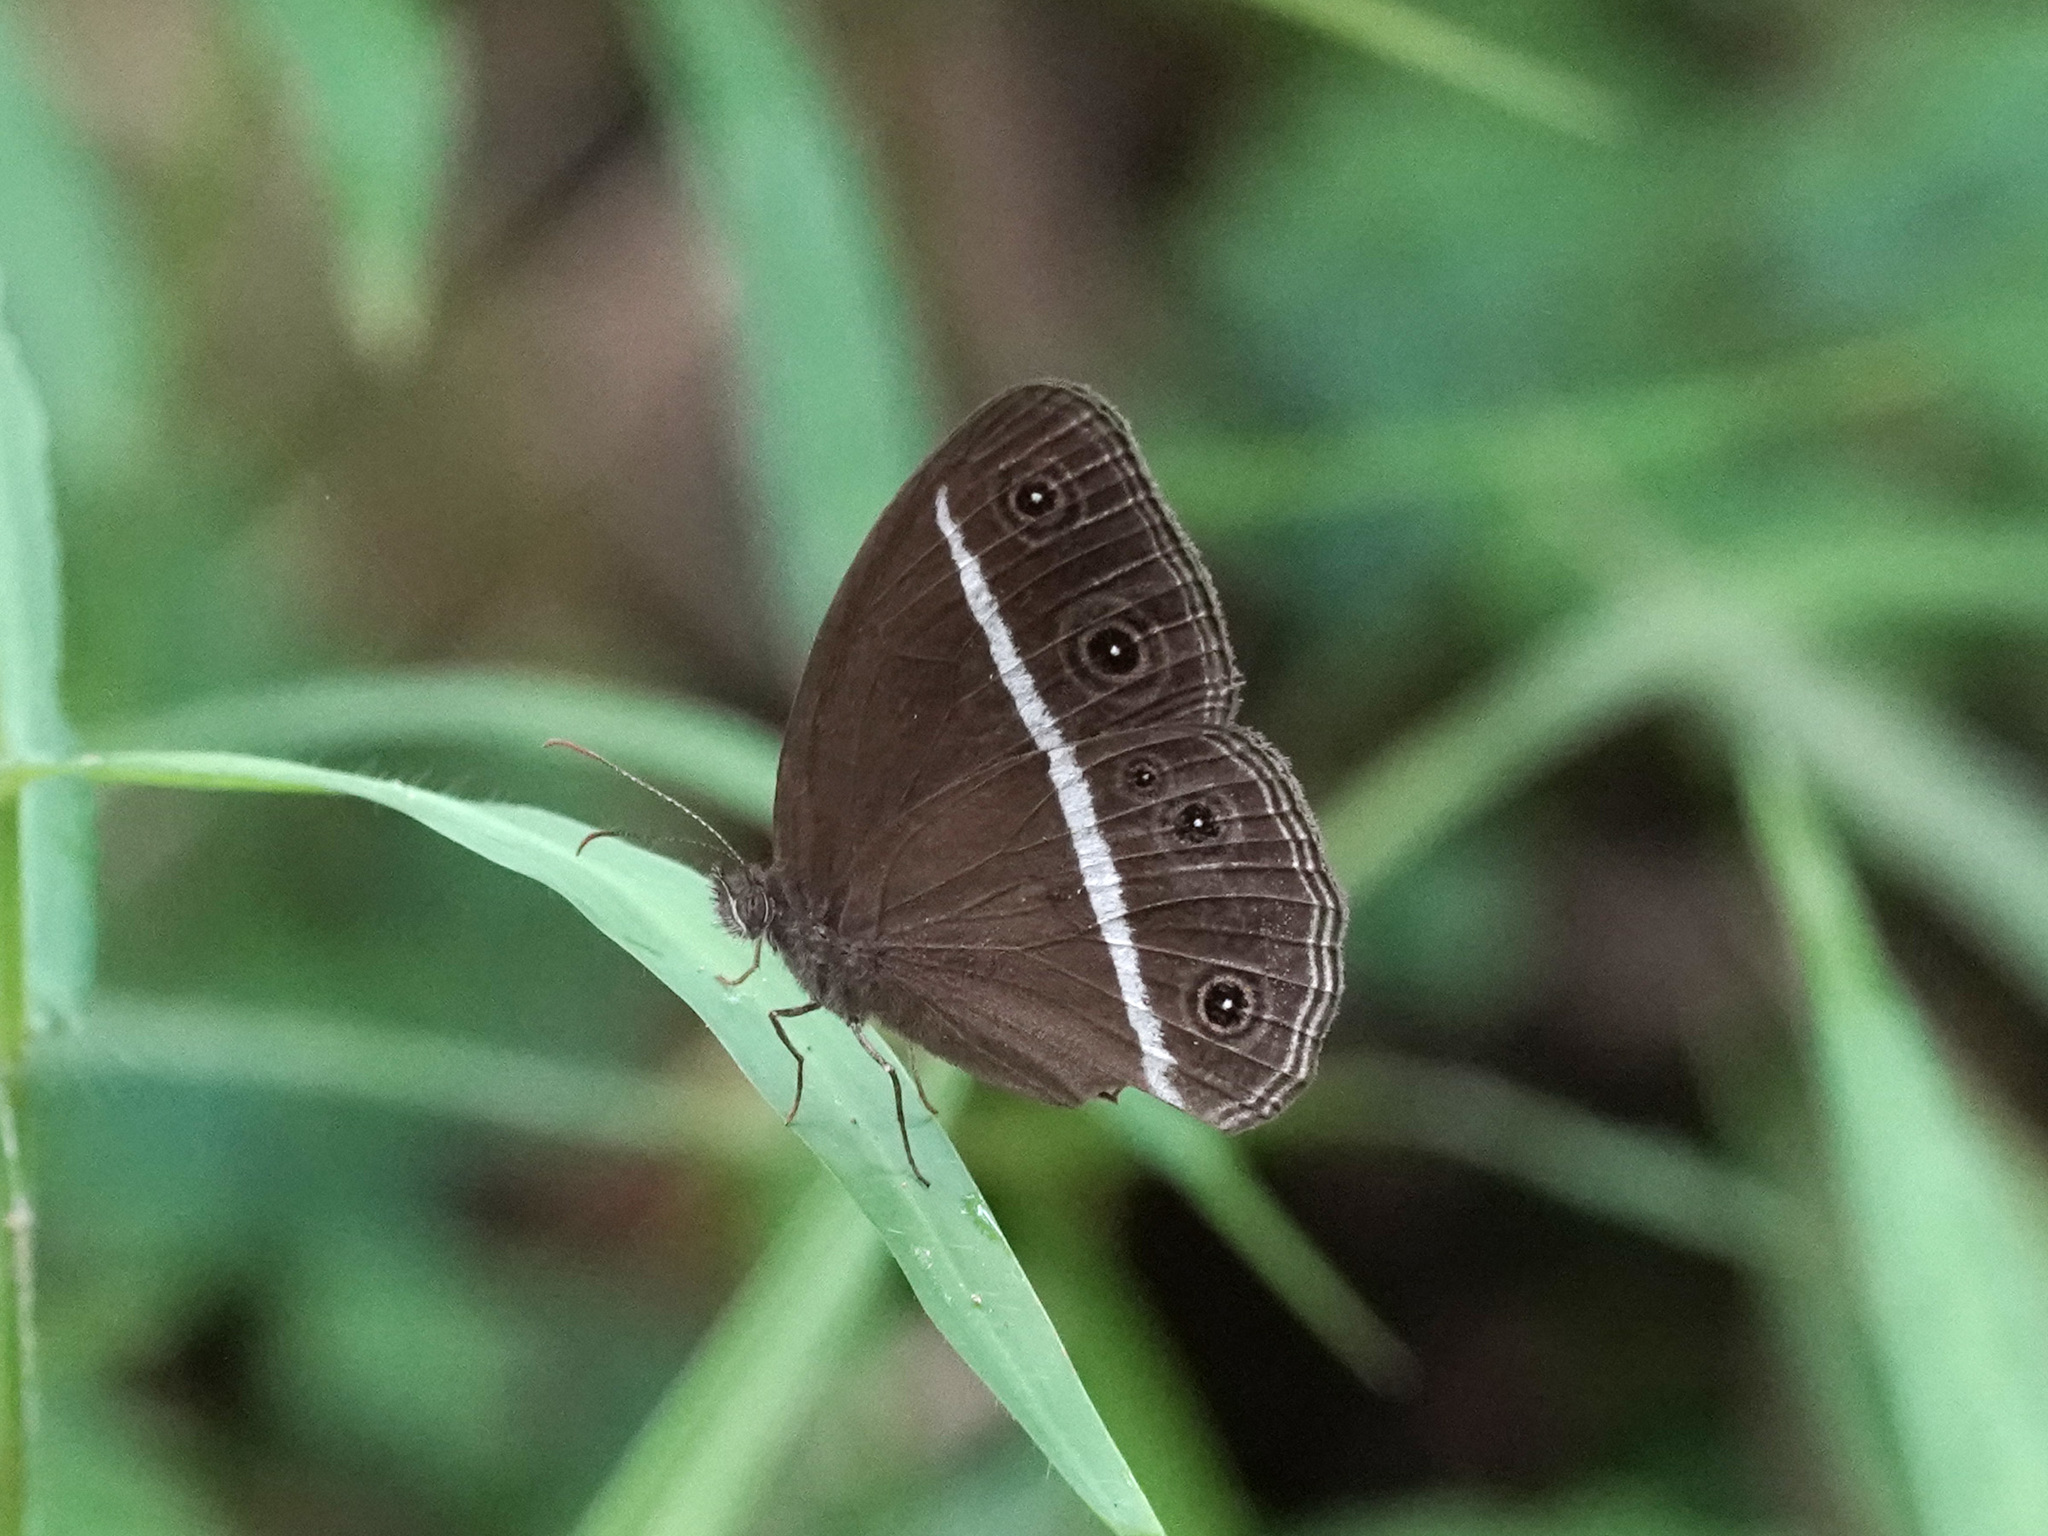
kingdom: Animalia
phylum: Arthropoda
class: Insecta
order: Lepidoptera
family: Nymphalidae
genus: Orsotriaena
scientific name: Orsotriaena medus
